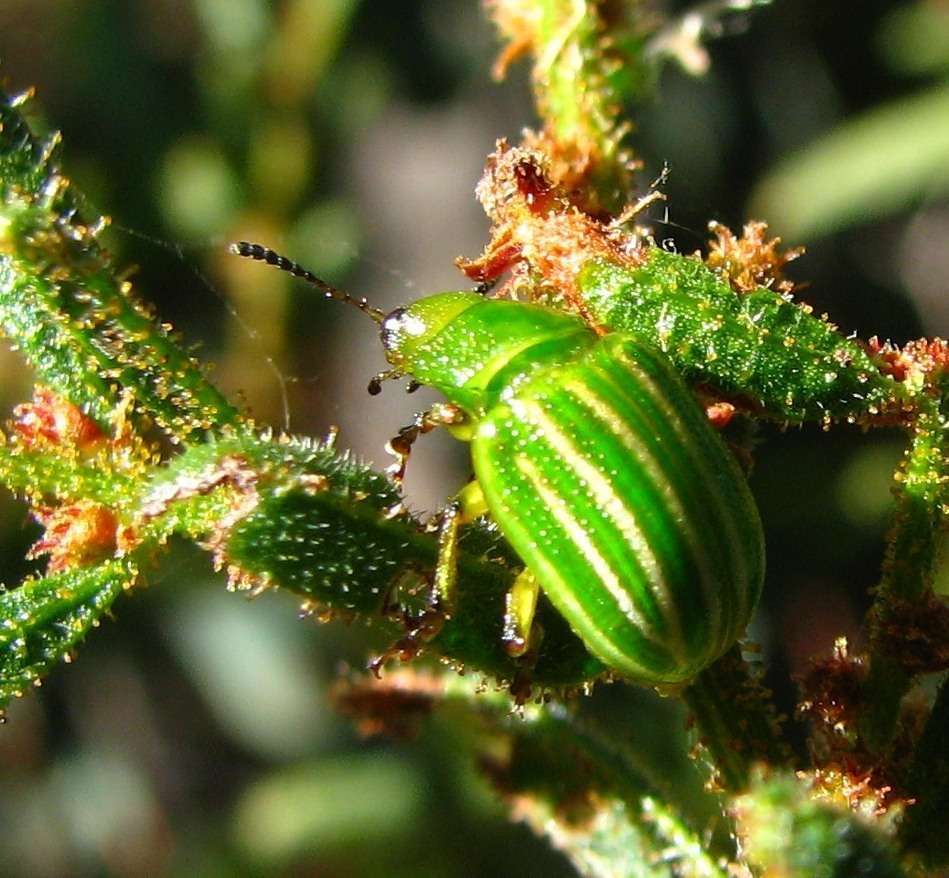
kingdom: Animalia
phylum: Arthropoda
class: Insecta
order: Coleoptera
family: Chrysomelidae
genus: Calomela
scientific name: Calomela
